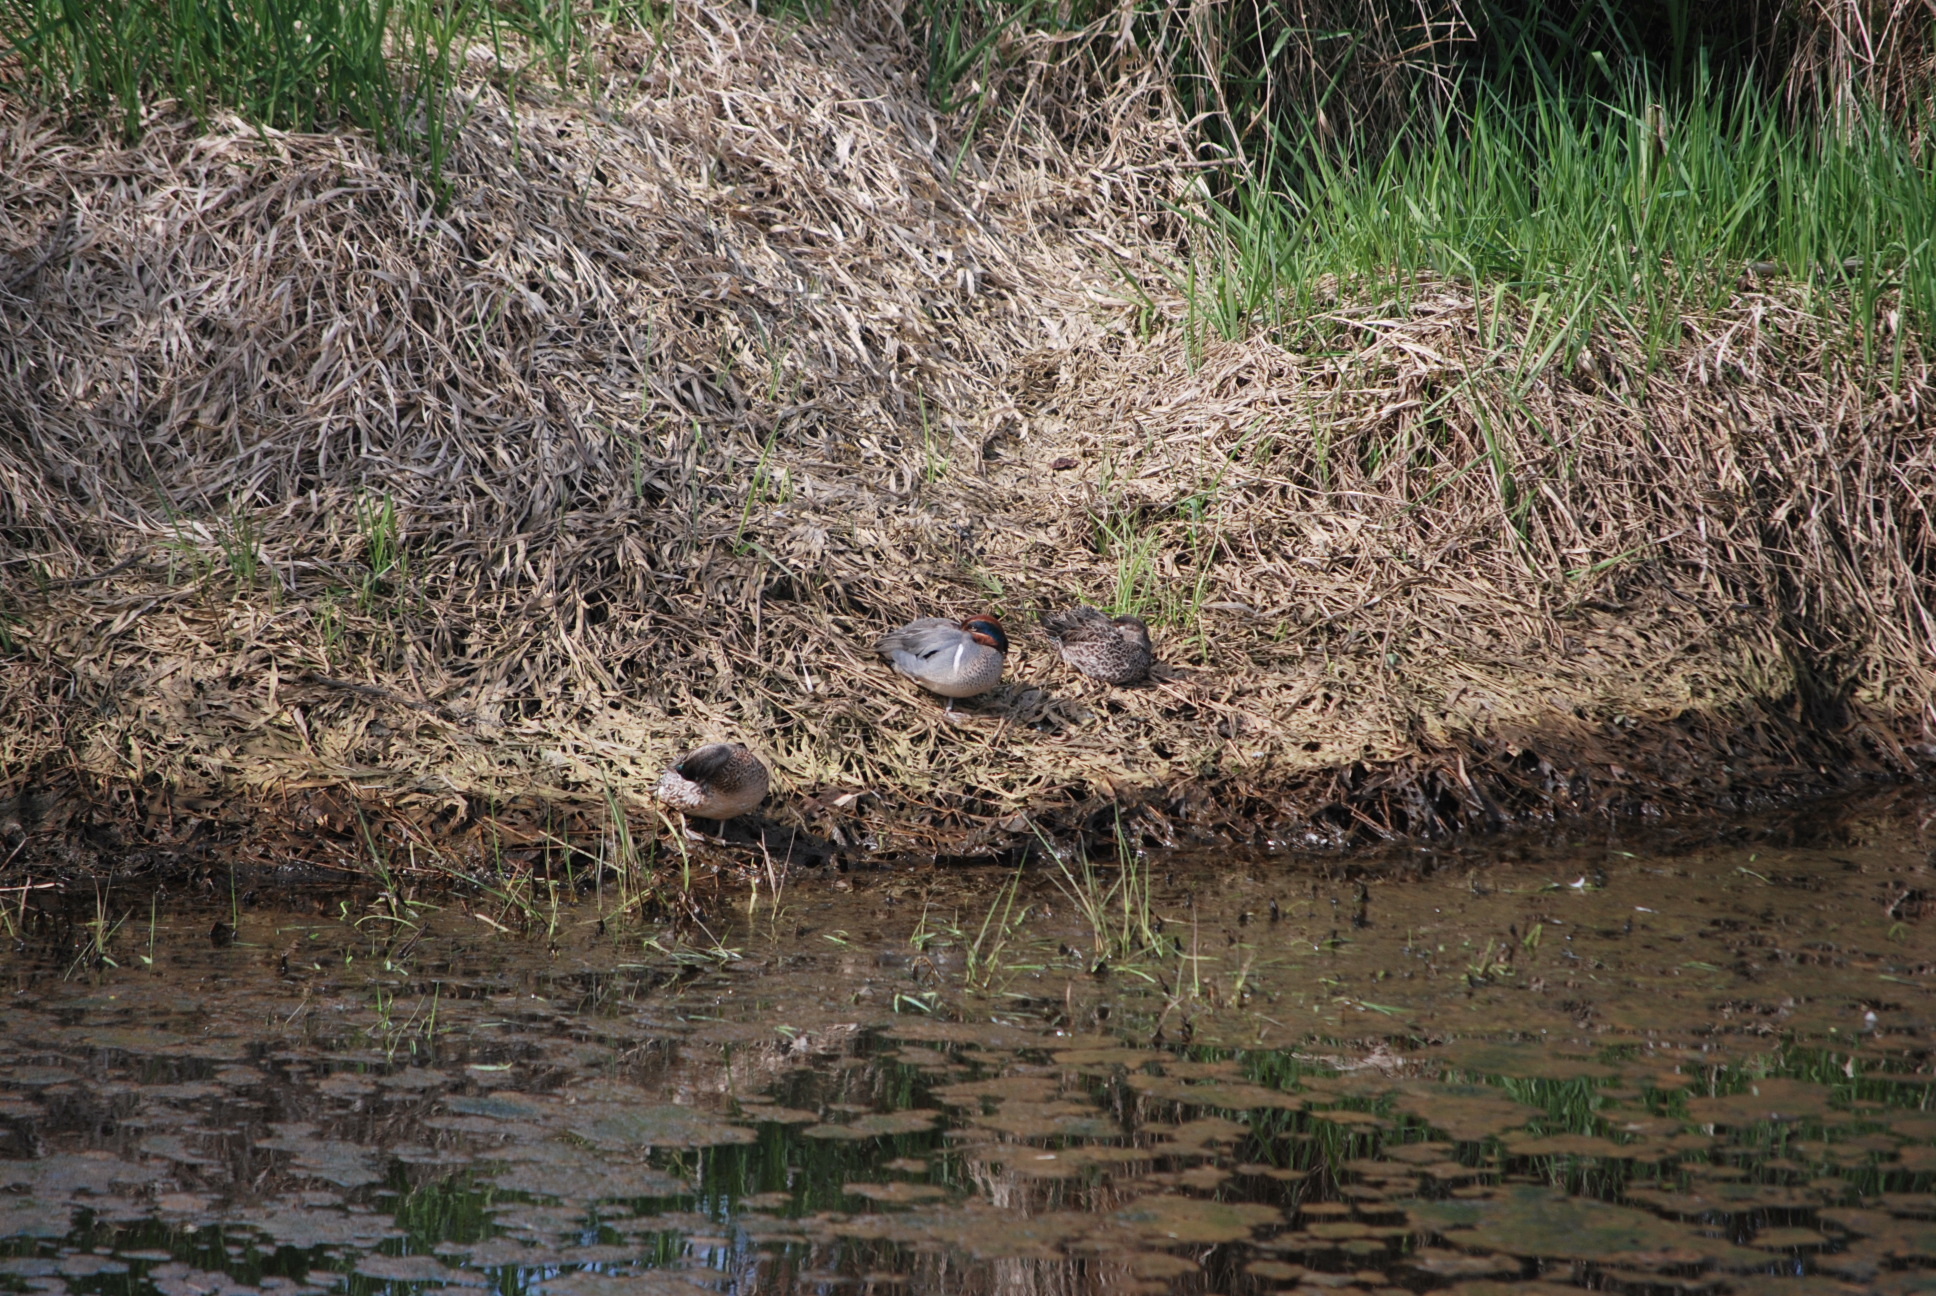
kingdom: Animalia
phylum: Chordata
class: Aves
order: Anseriformes
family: Anatidae
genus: Anas
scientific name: Anas crecca
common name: Eurasian teal
